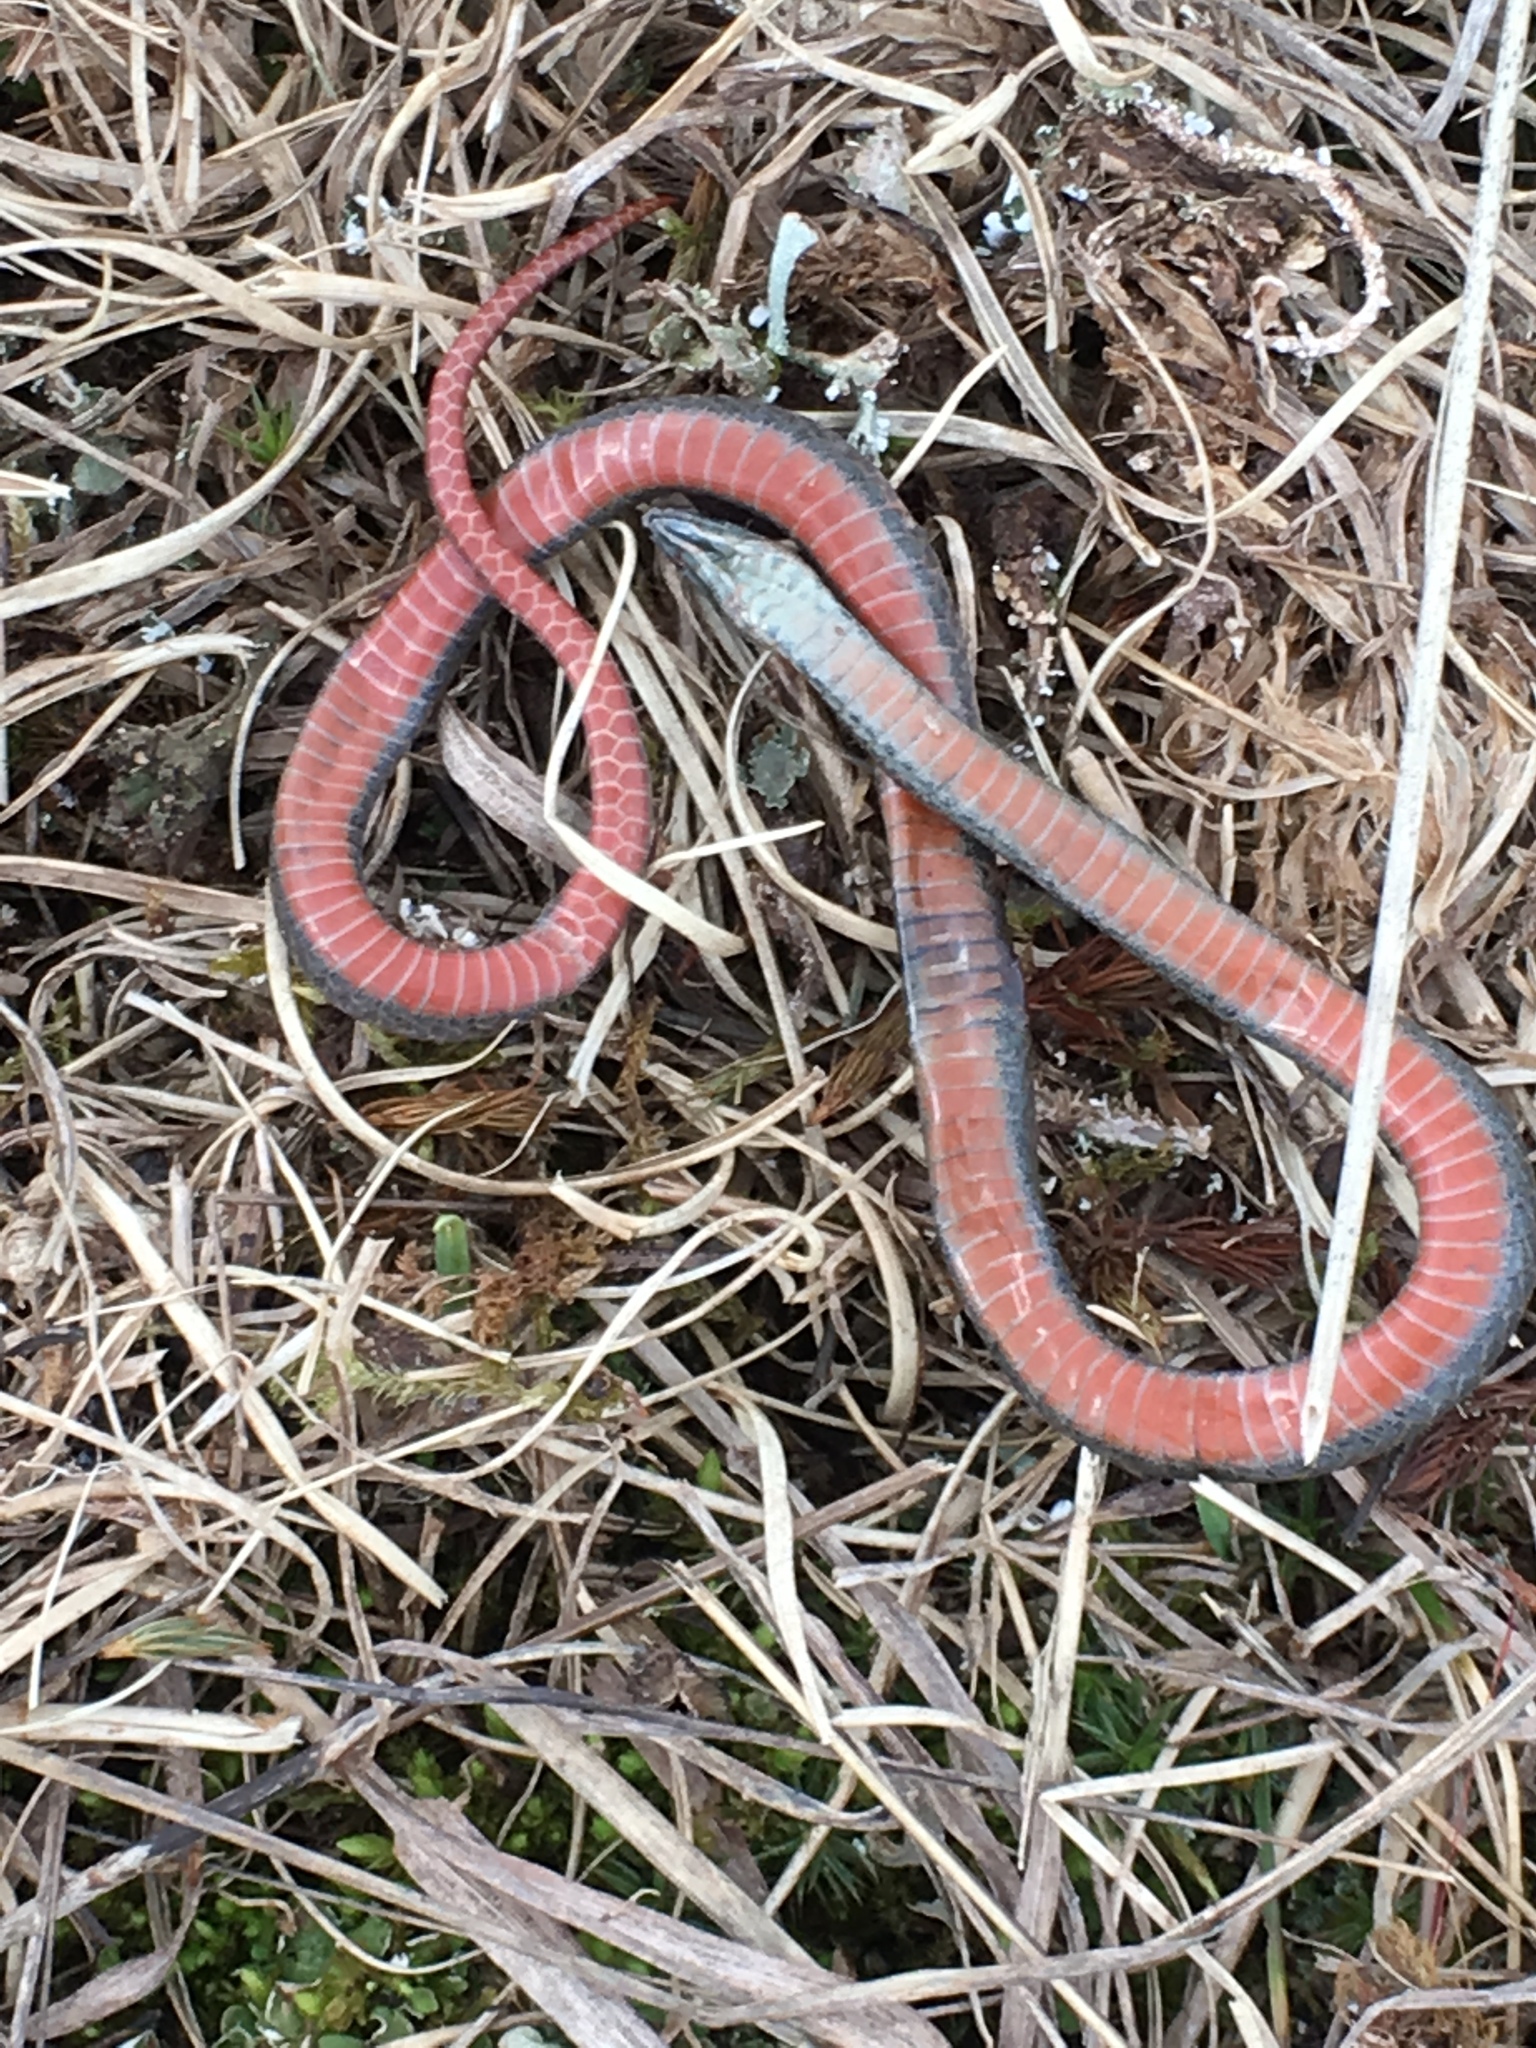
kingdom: Animalia
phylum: Chordata
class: Squamata
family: Colubridae
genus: Storeria
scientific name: Storeria occipitomaculata
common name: Redbelly snake
